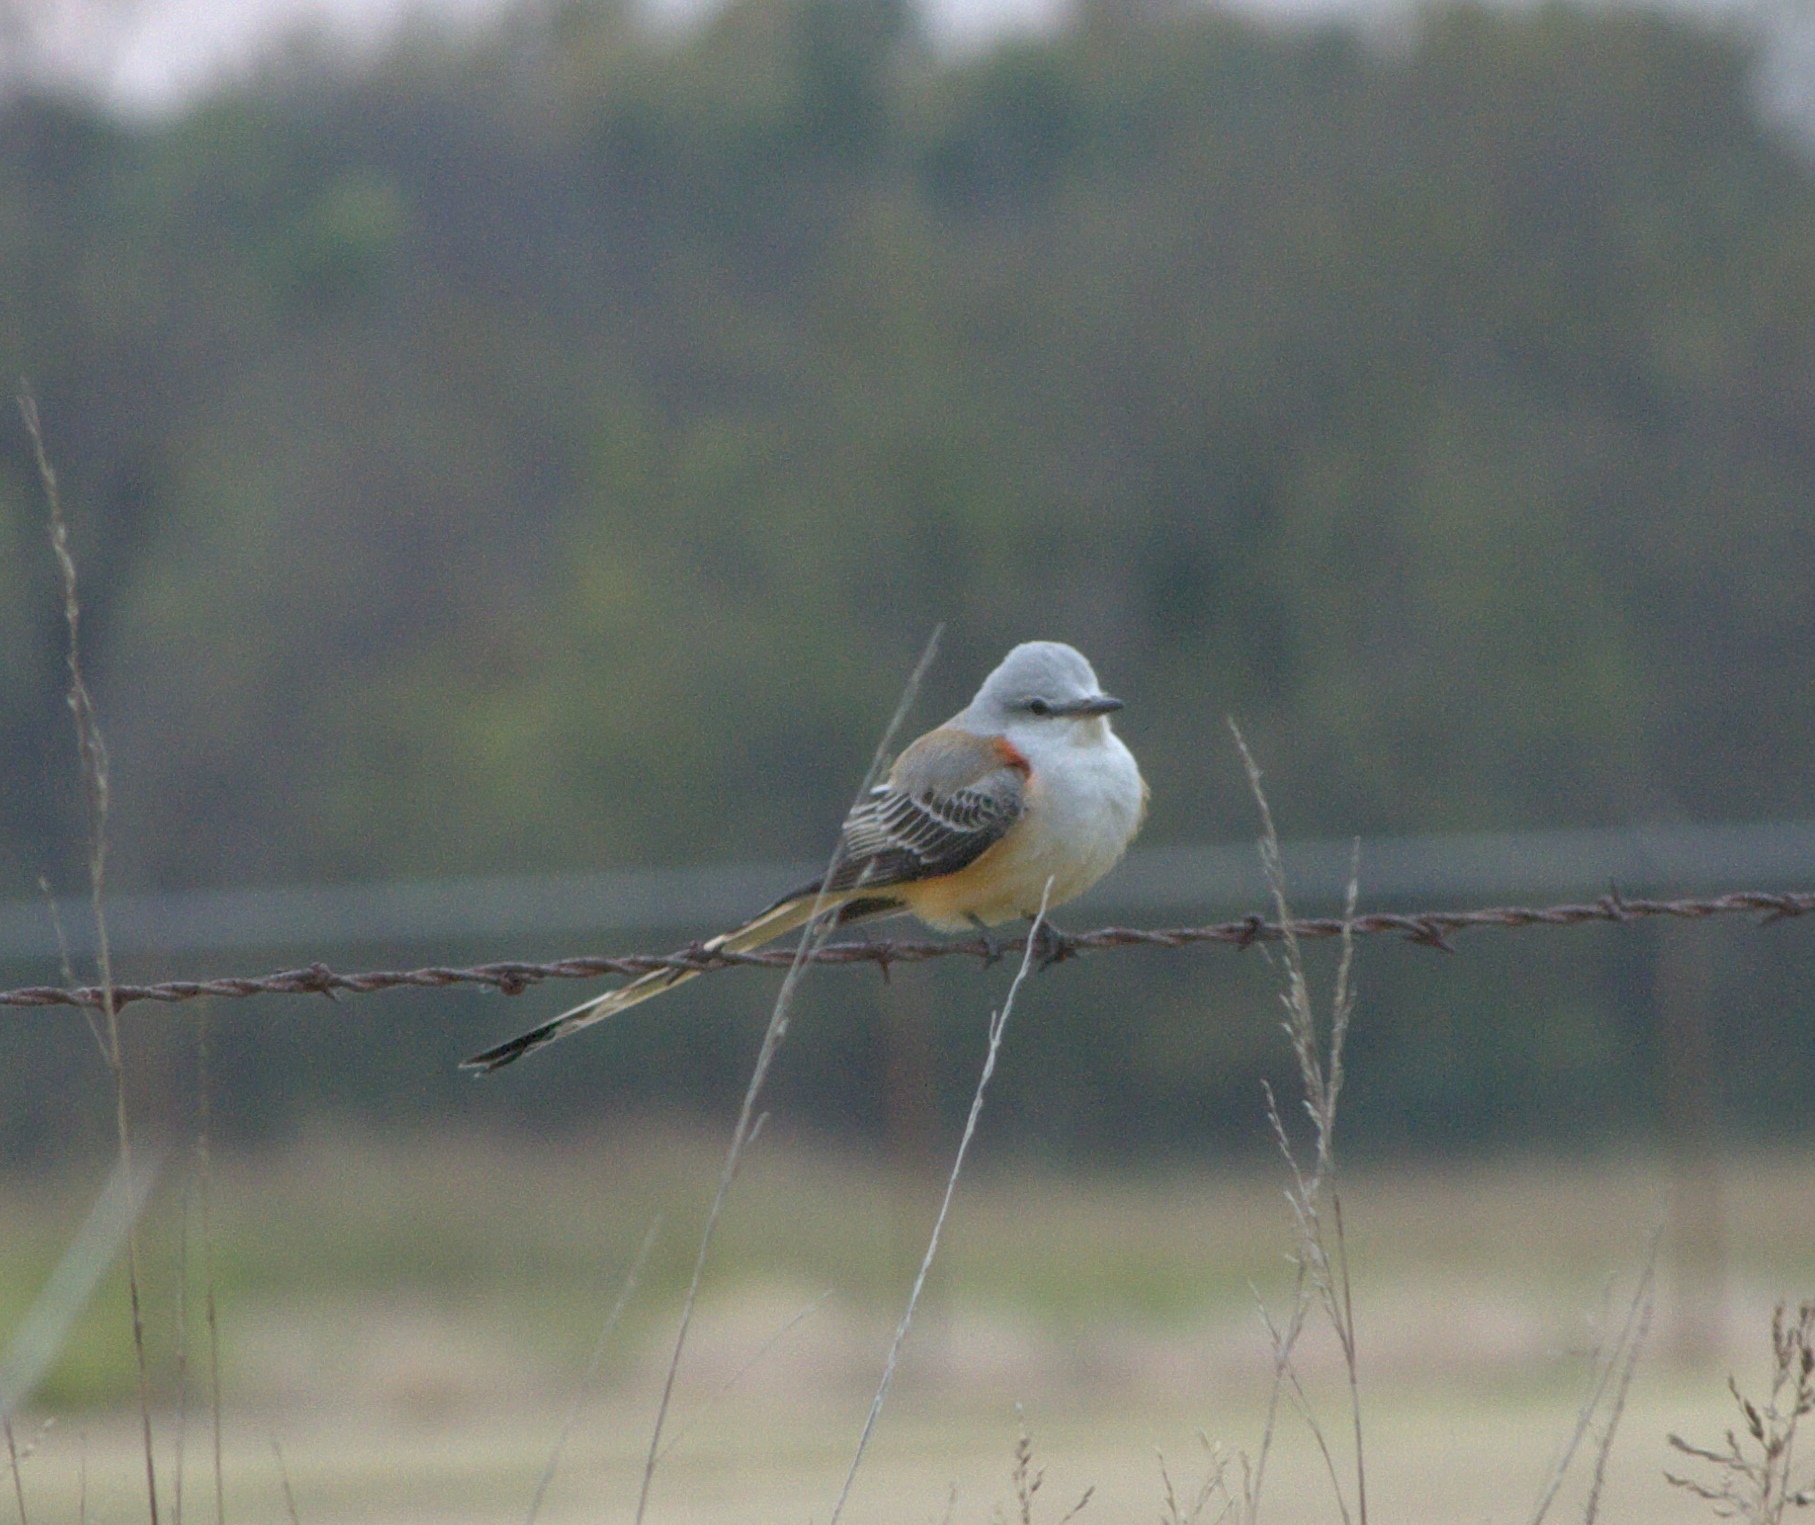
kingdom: Animalia
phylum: Chordata
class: Aves
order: Passeriformes
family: Tyrannidae
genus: Tyrannus
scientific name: Tyrannus forficatus
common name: Scissor-tailed flycatcher
